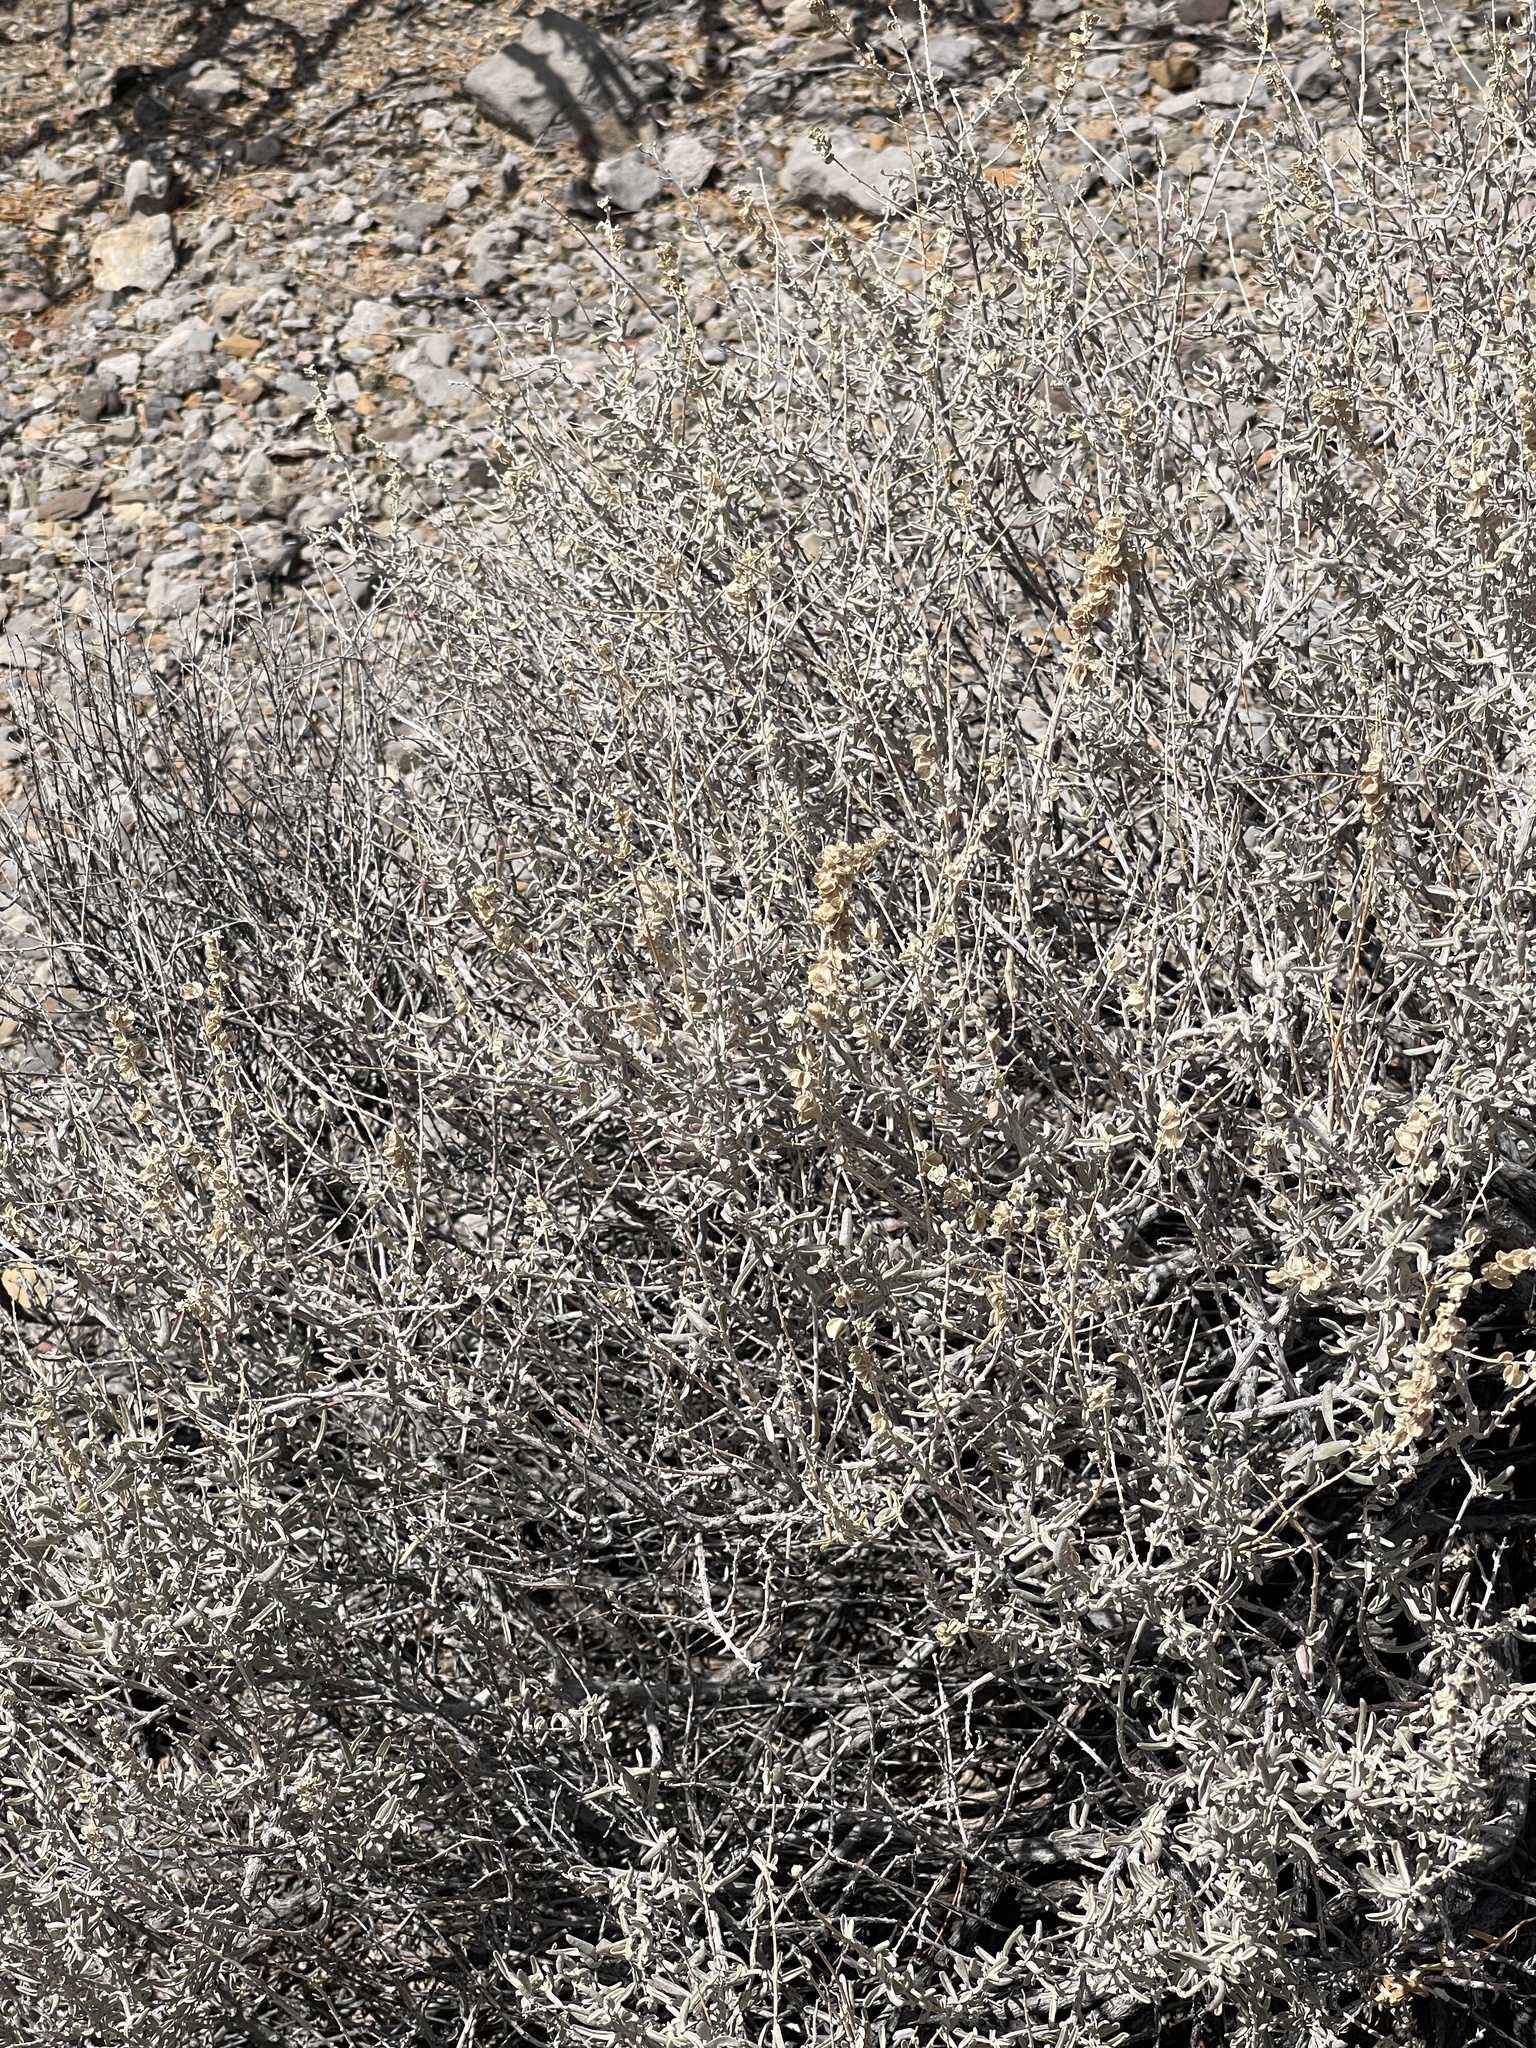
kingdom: Plantae
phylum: Tracheophyta
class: Magnoliopsida
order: Caryophyllales
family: Amaranthaceae
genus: Atriplex
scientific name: Atriplex canescens
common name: Four-wing saltbush
